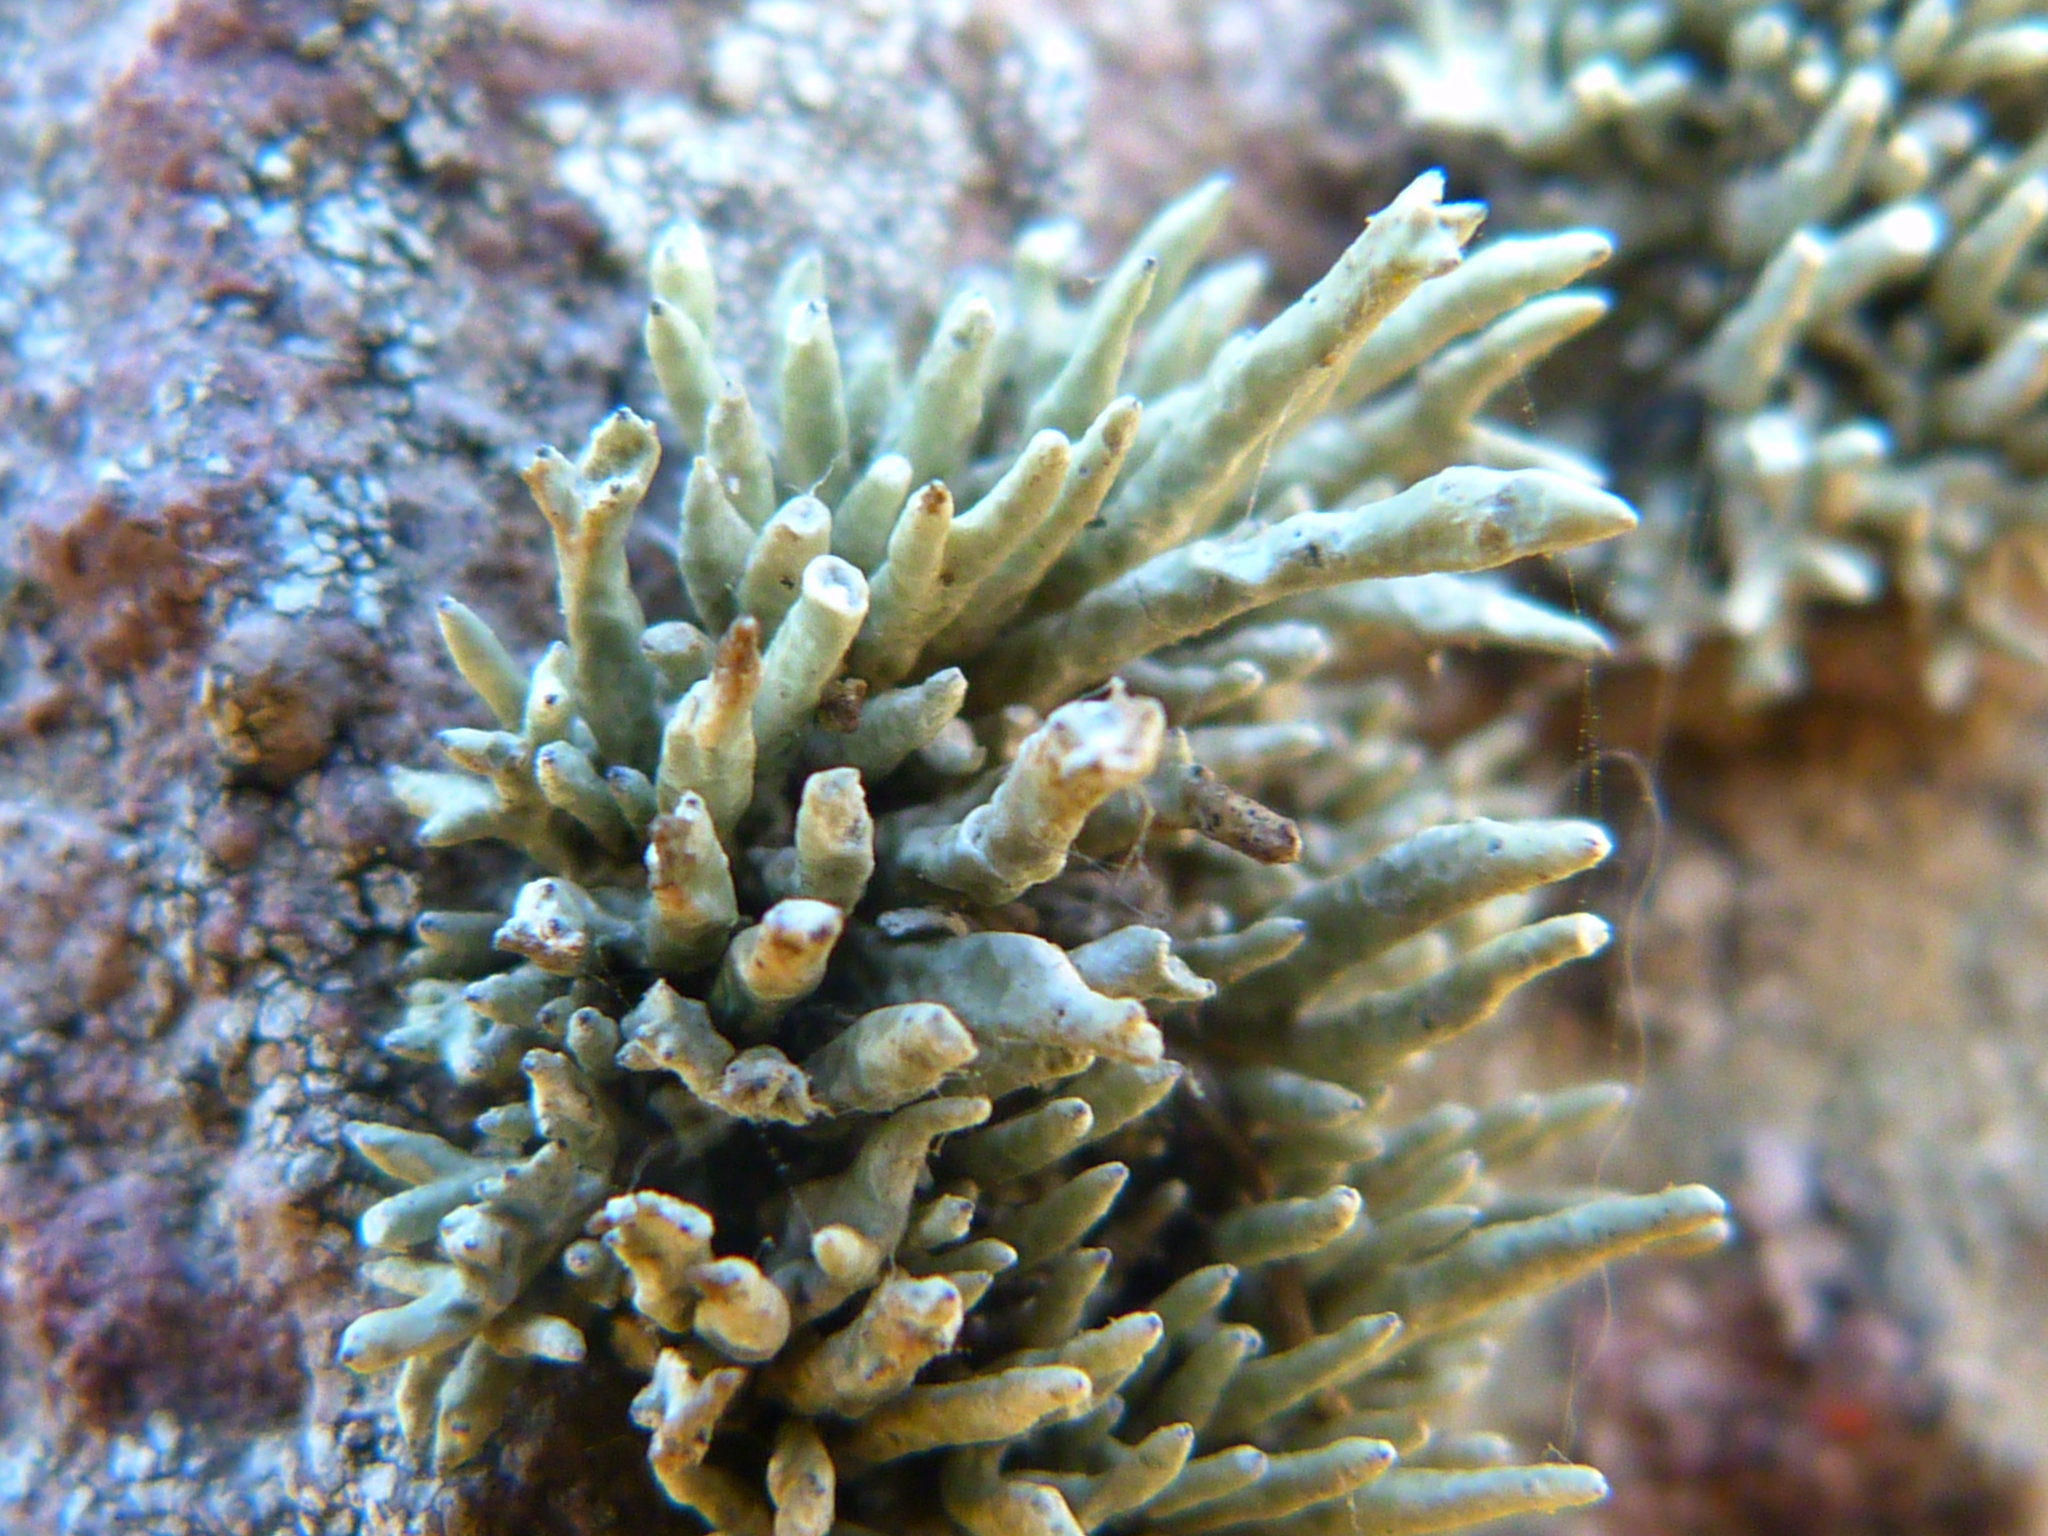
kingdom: Fungi
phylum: Ascomycota
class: Lecanoromycetes
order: Lecanorales
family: Ramalinaceae
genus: Niebla
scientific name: Niebla combeoides
